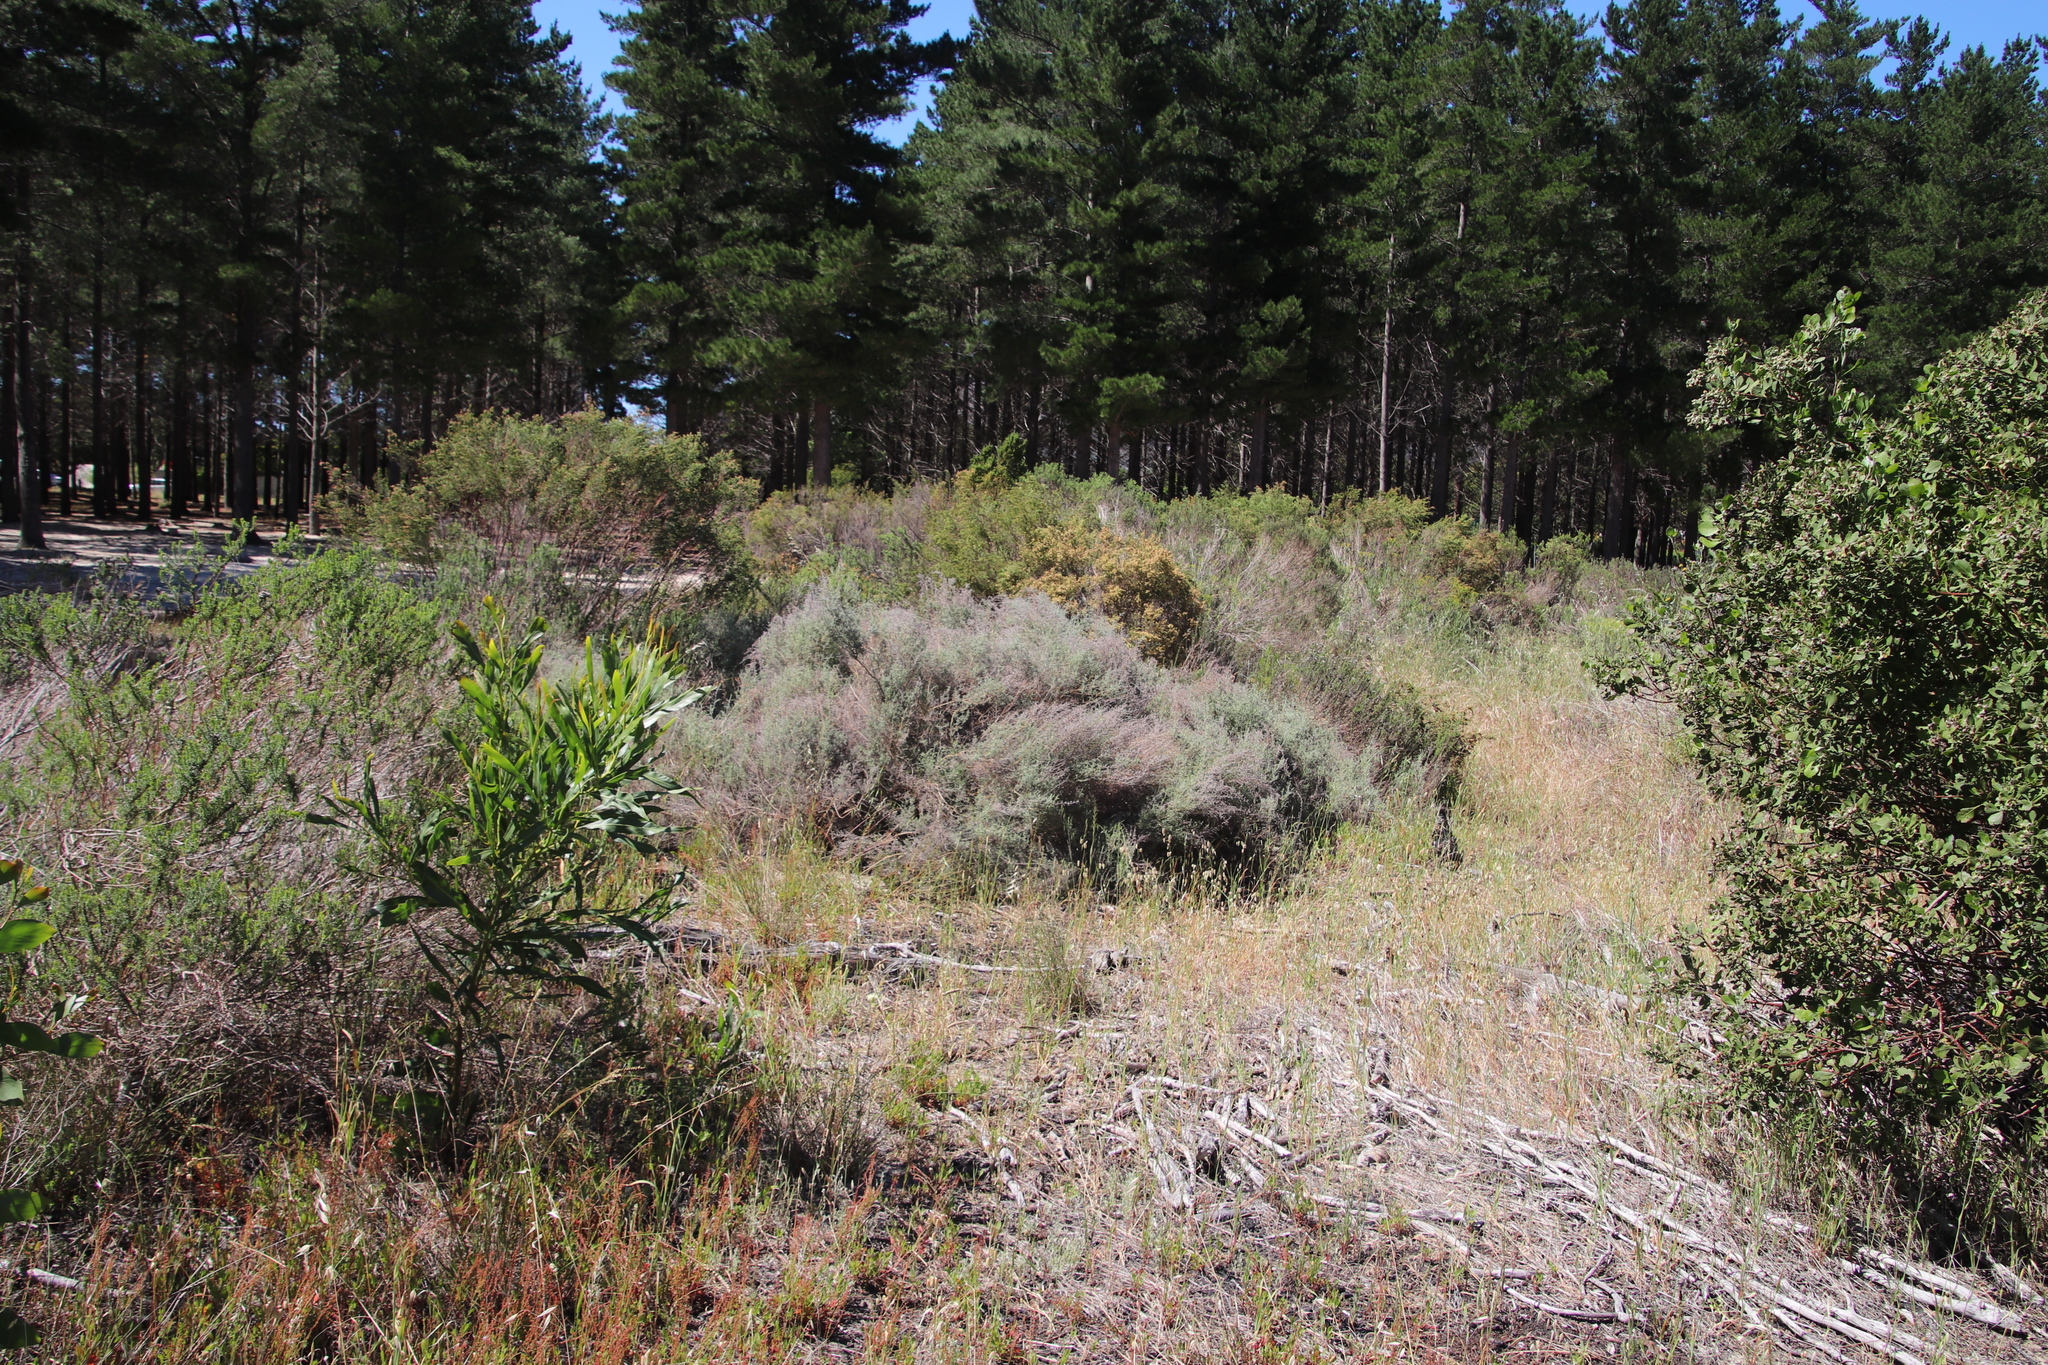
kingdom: Plantae
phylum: Tracheophyta
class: Magnoliopsida
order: Asterales
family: Asteraceae
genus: Seriphium
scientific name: Seriphium plumosum
